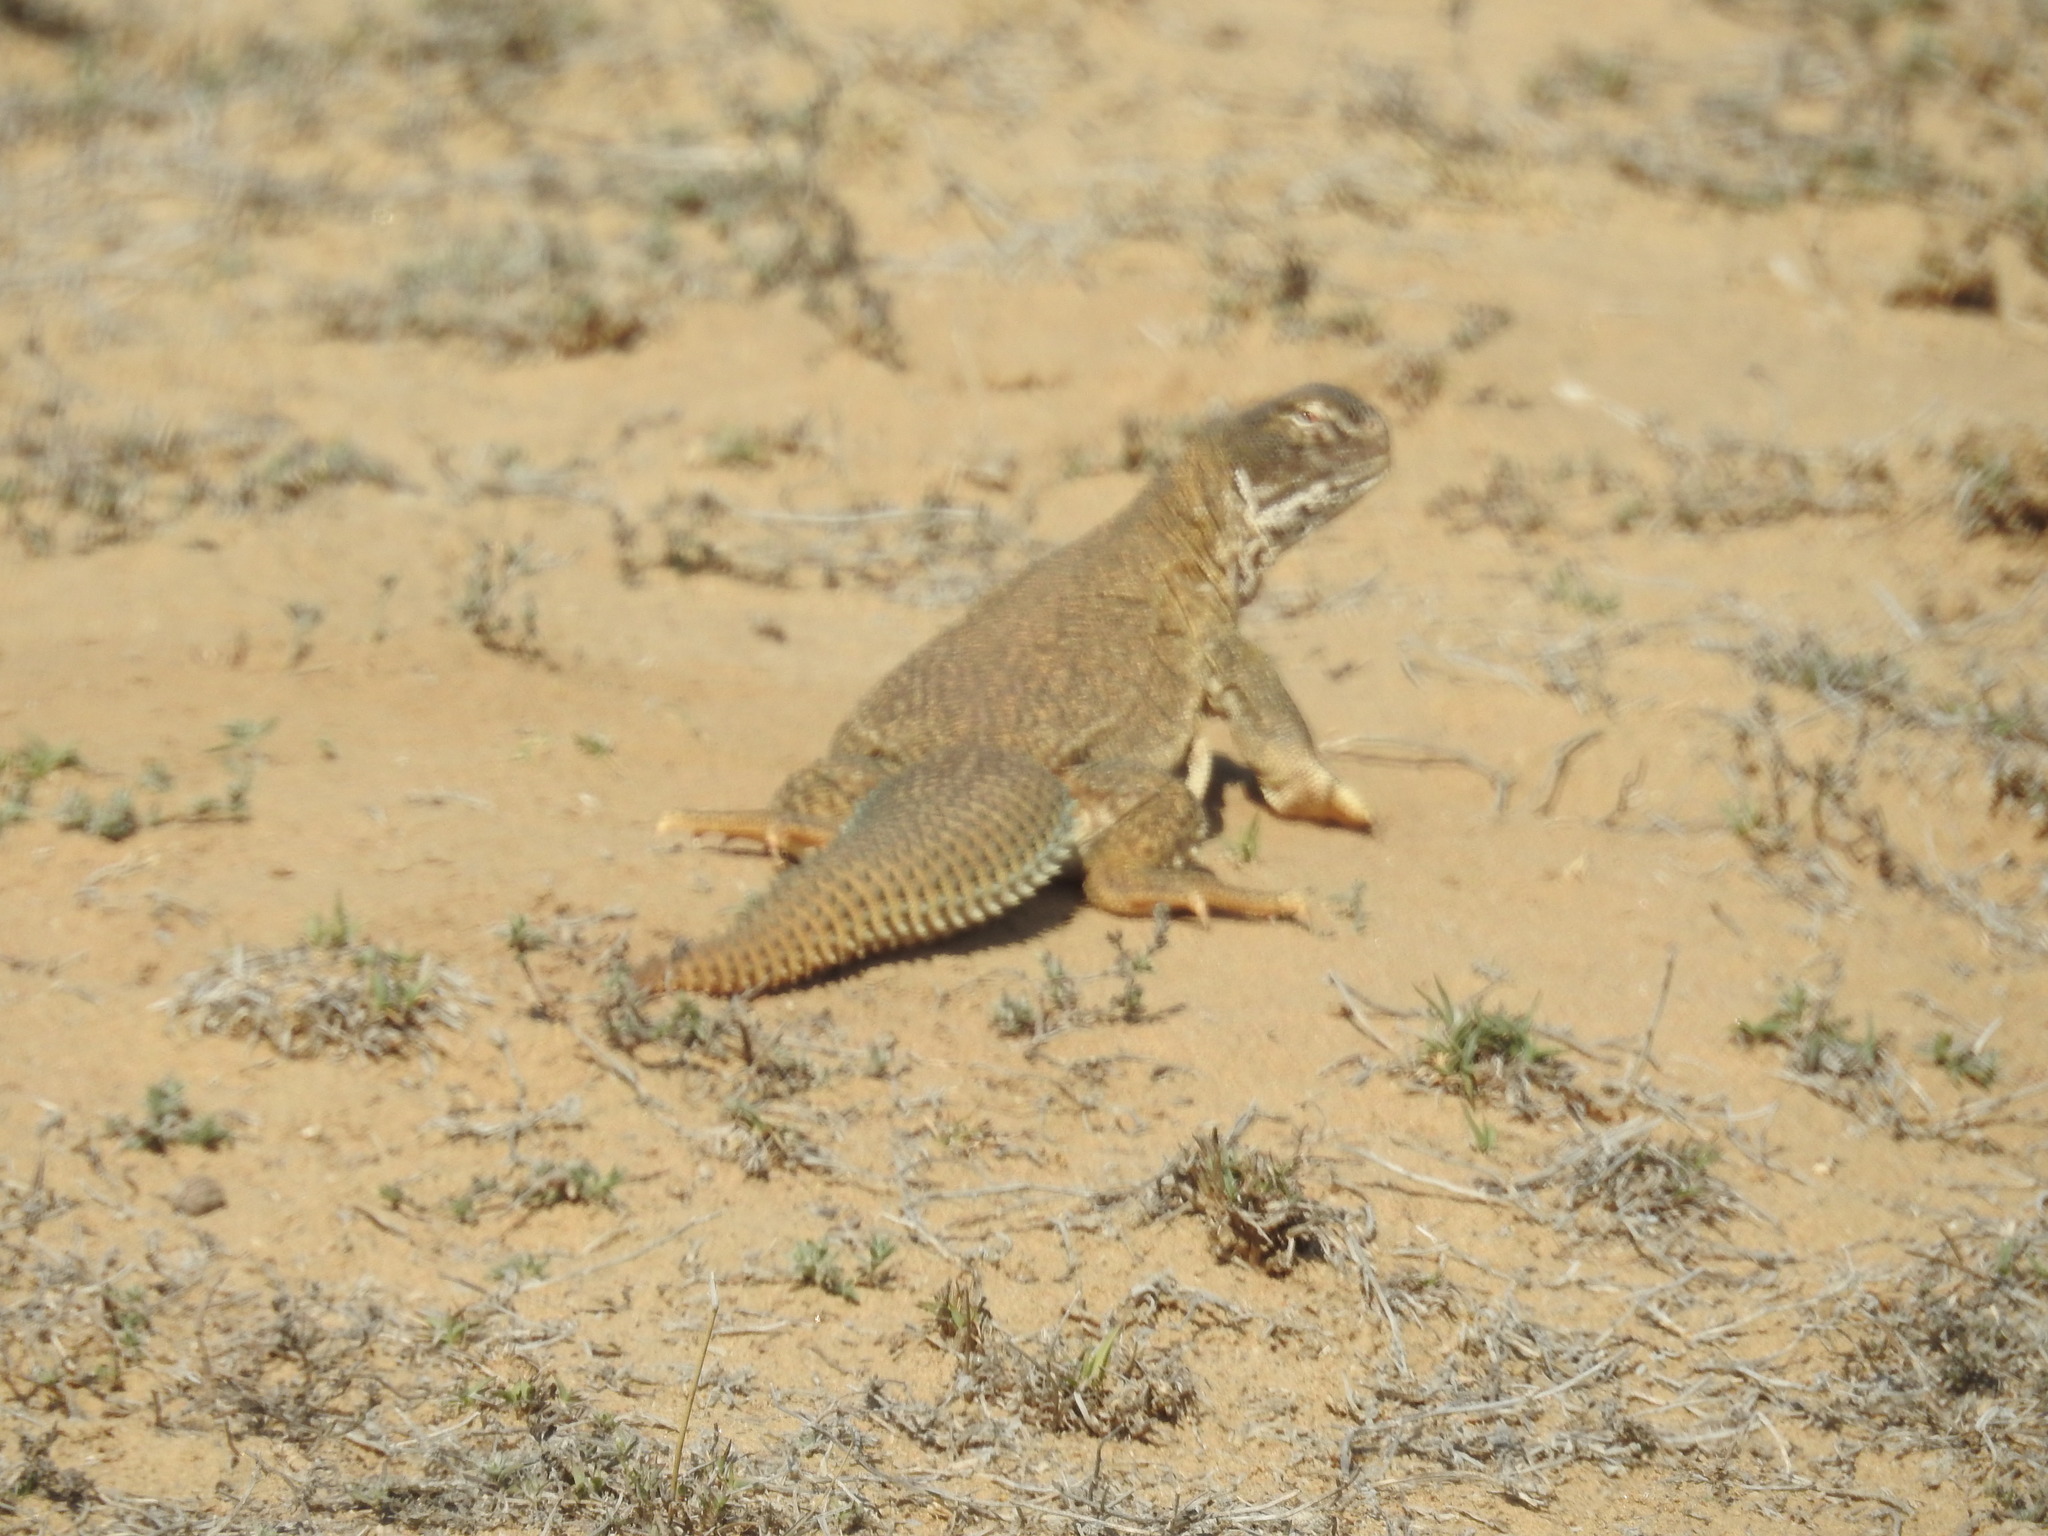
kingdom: Animalia
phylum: Chordata
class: Squamata
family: Agamidae
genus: Saara
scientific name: Saara hardwickii
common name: Hardwick's spiny-tailed lizard
